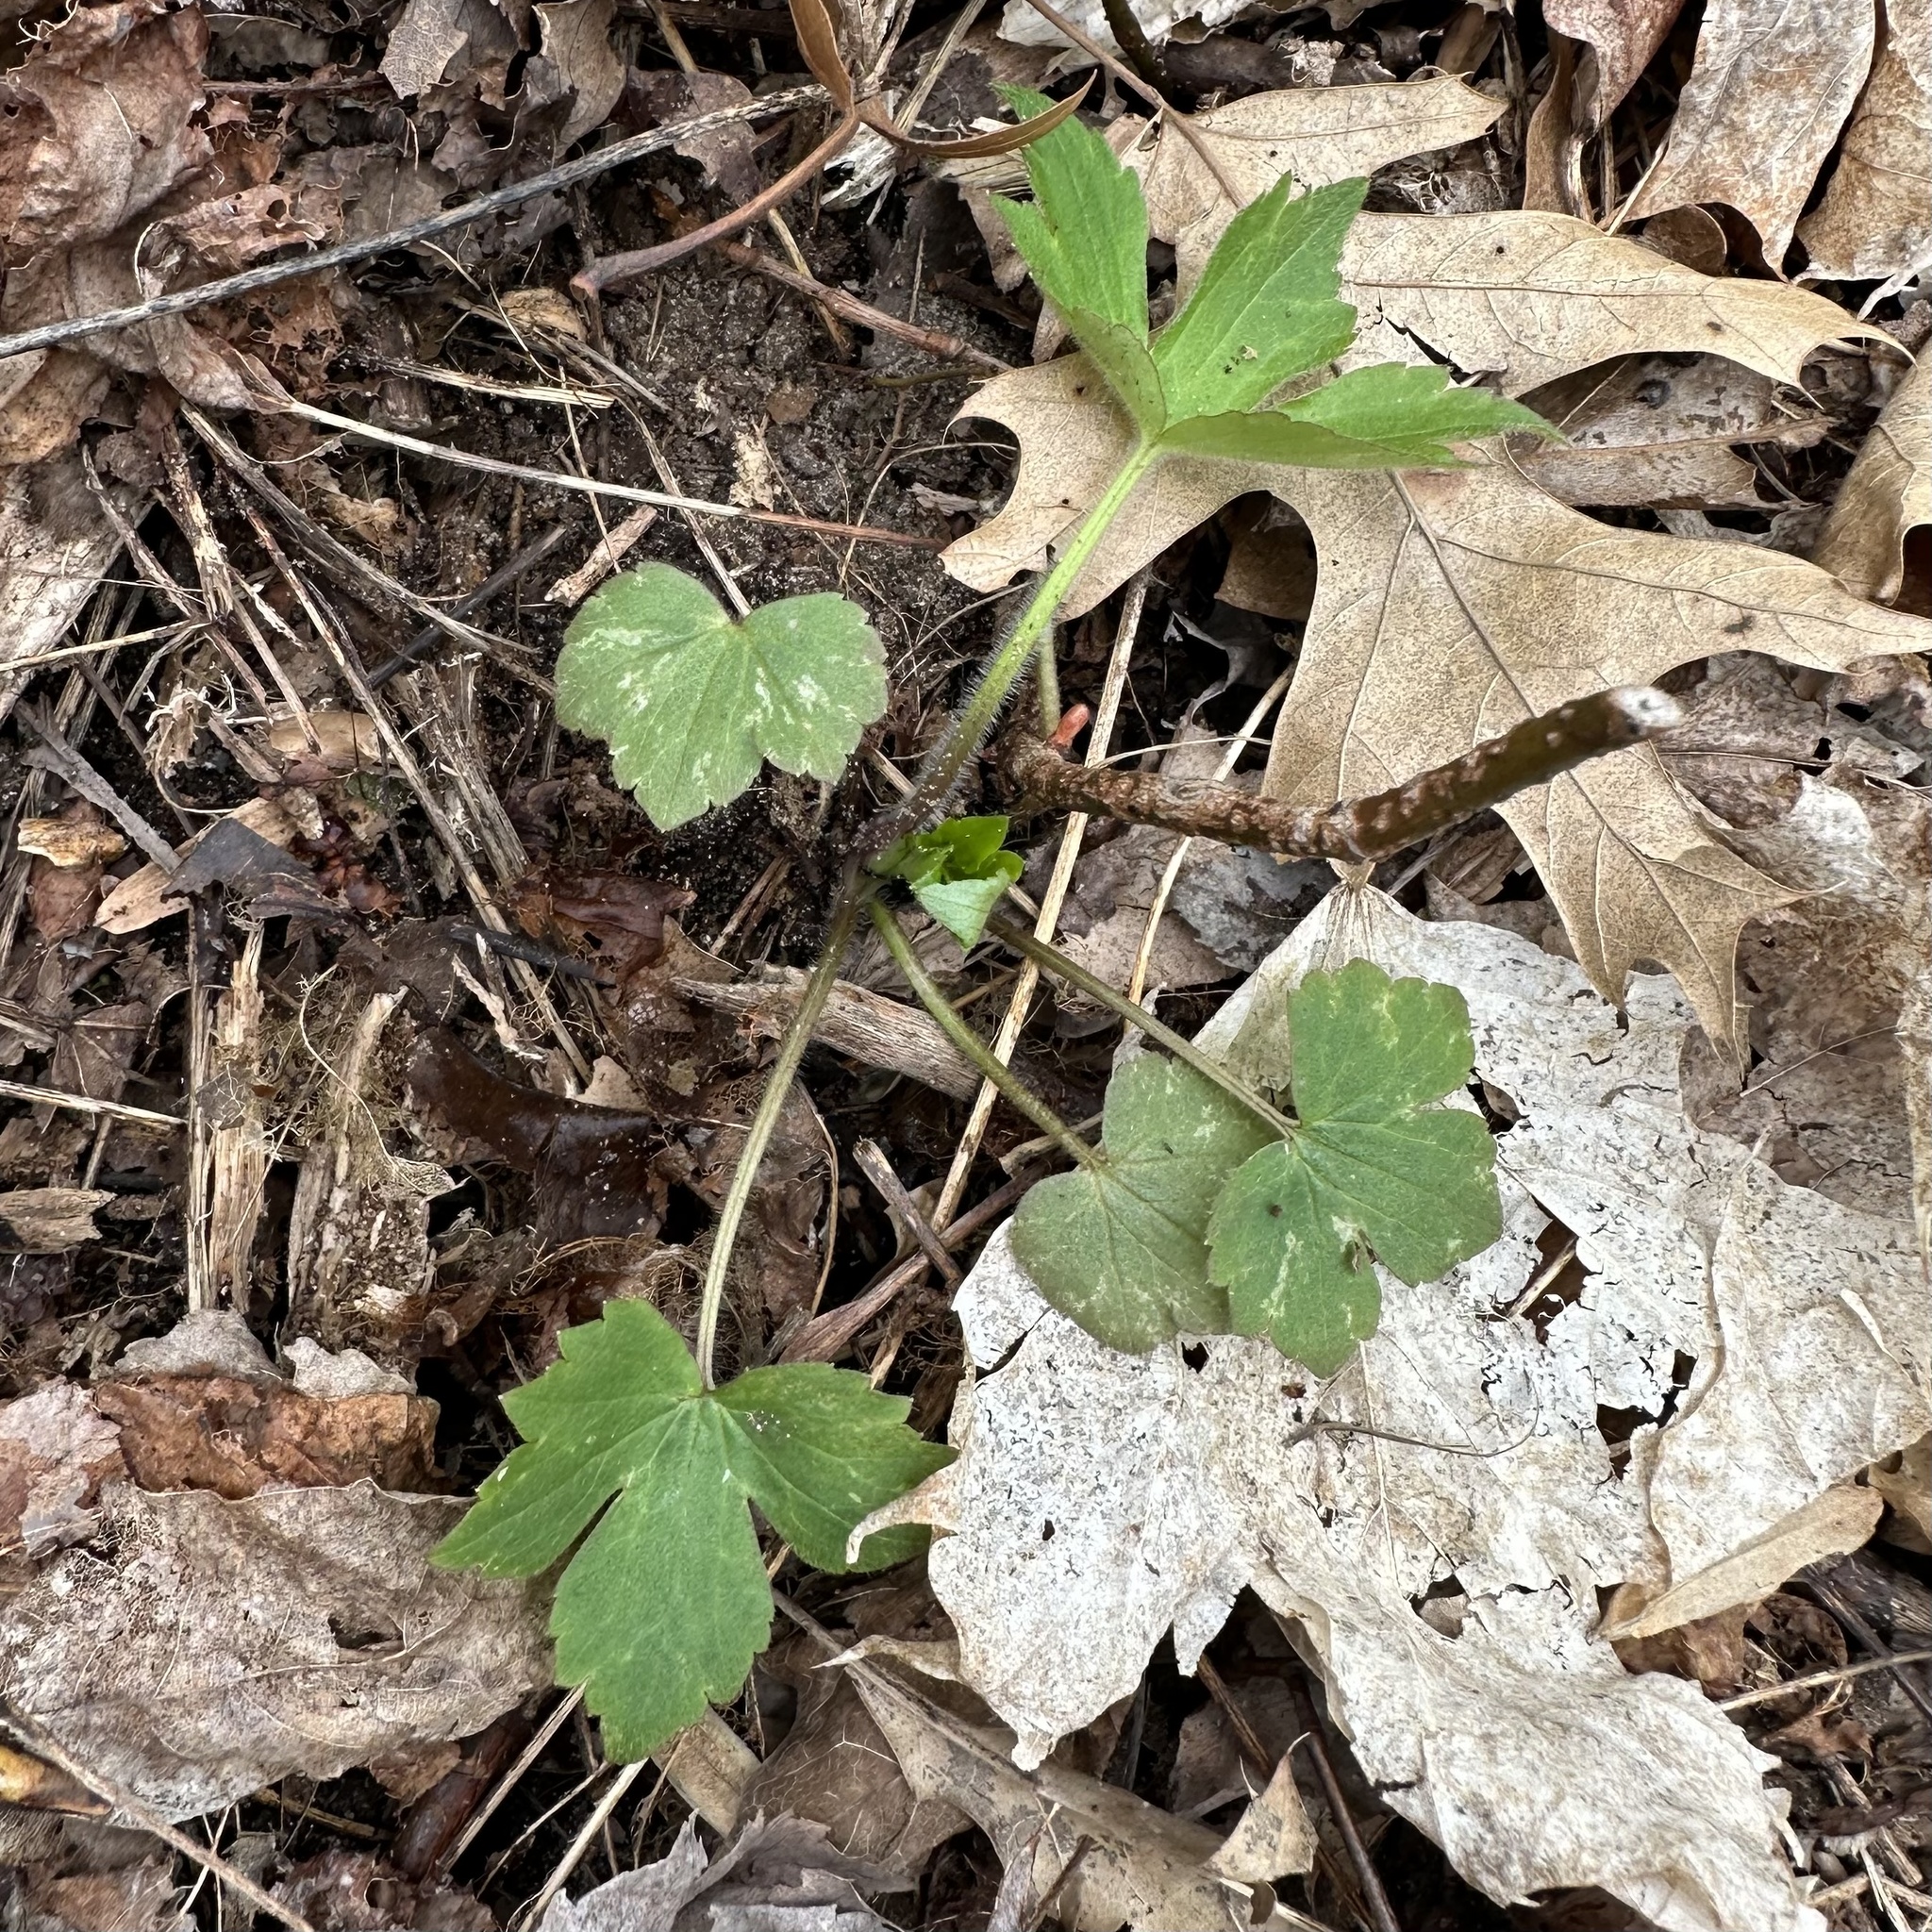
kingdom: Plantae
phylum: Tracheophyta
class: Magnoliopsida
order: Ranunculales
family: Ranunculaceae
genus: Ranunculus
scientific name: Ranunculus recurvatus
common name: Blisterwort
